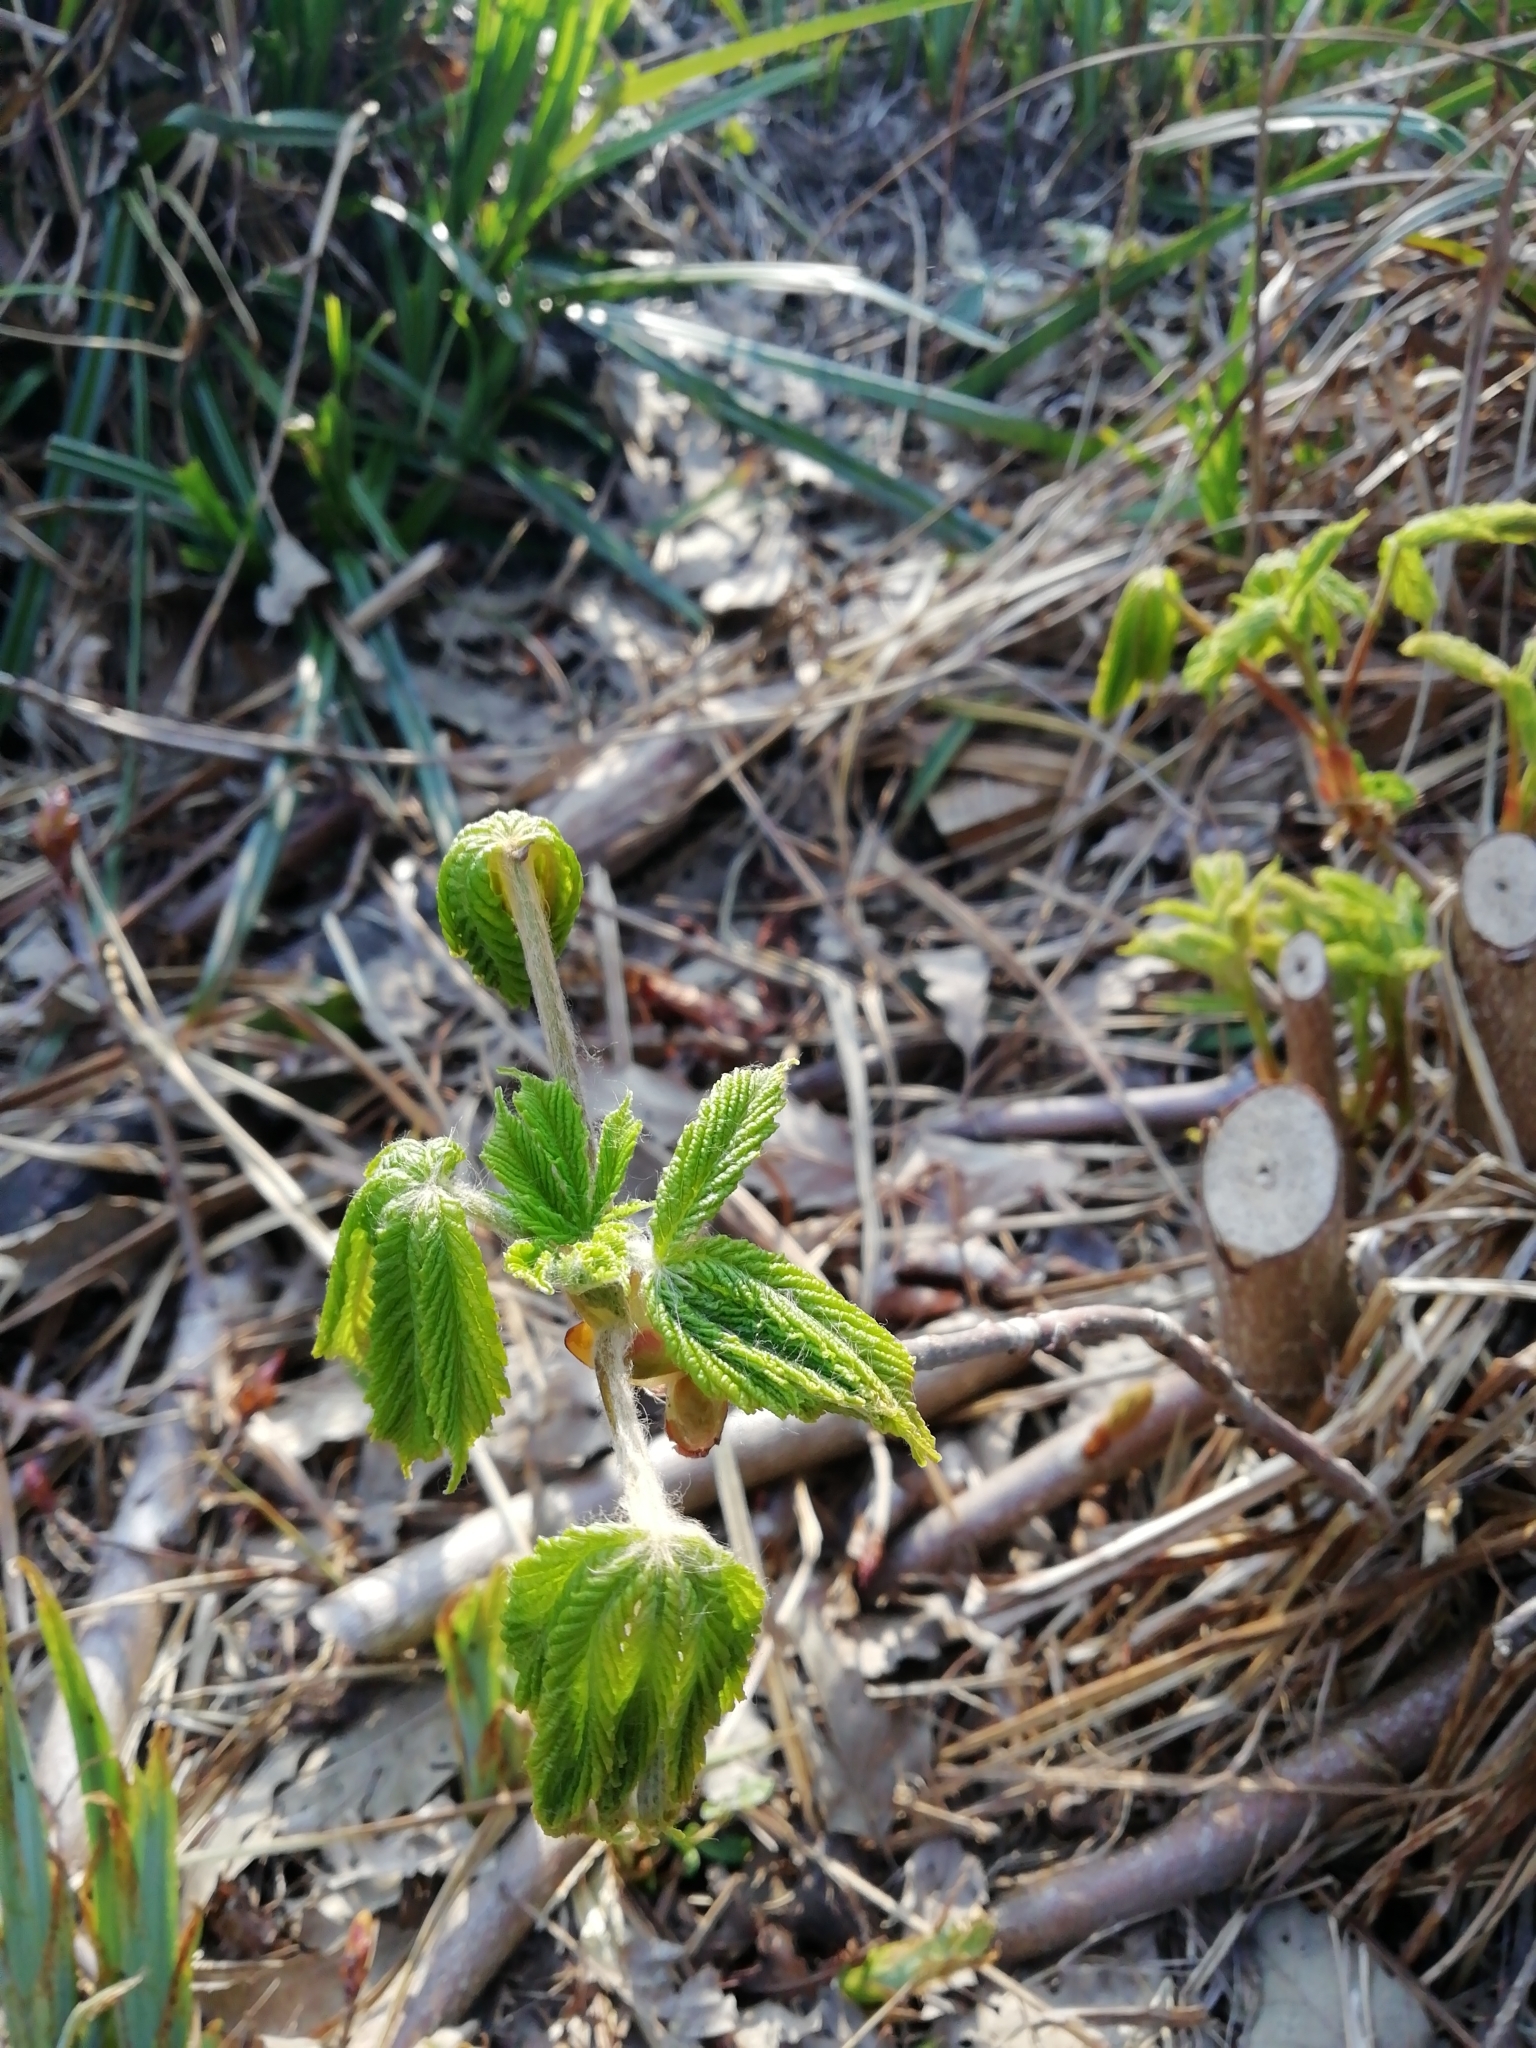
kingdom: Plantae
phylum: Tracheophyta
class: Magnoliopsida
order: Sapindales
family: Sapindaceae
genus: Aesculus
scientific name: Aesculus hippocastanum
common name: Horse-chestnut
